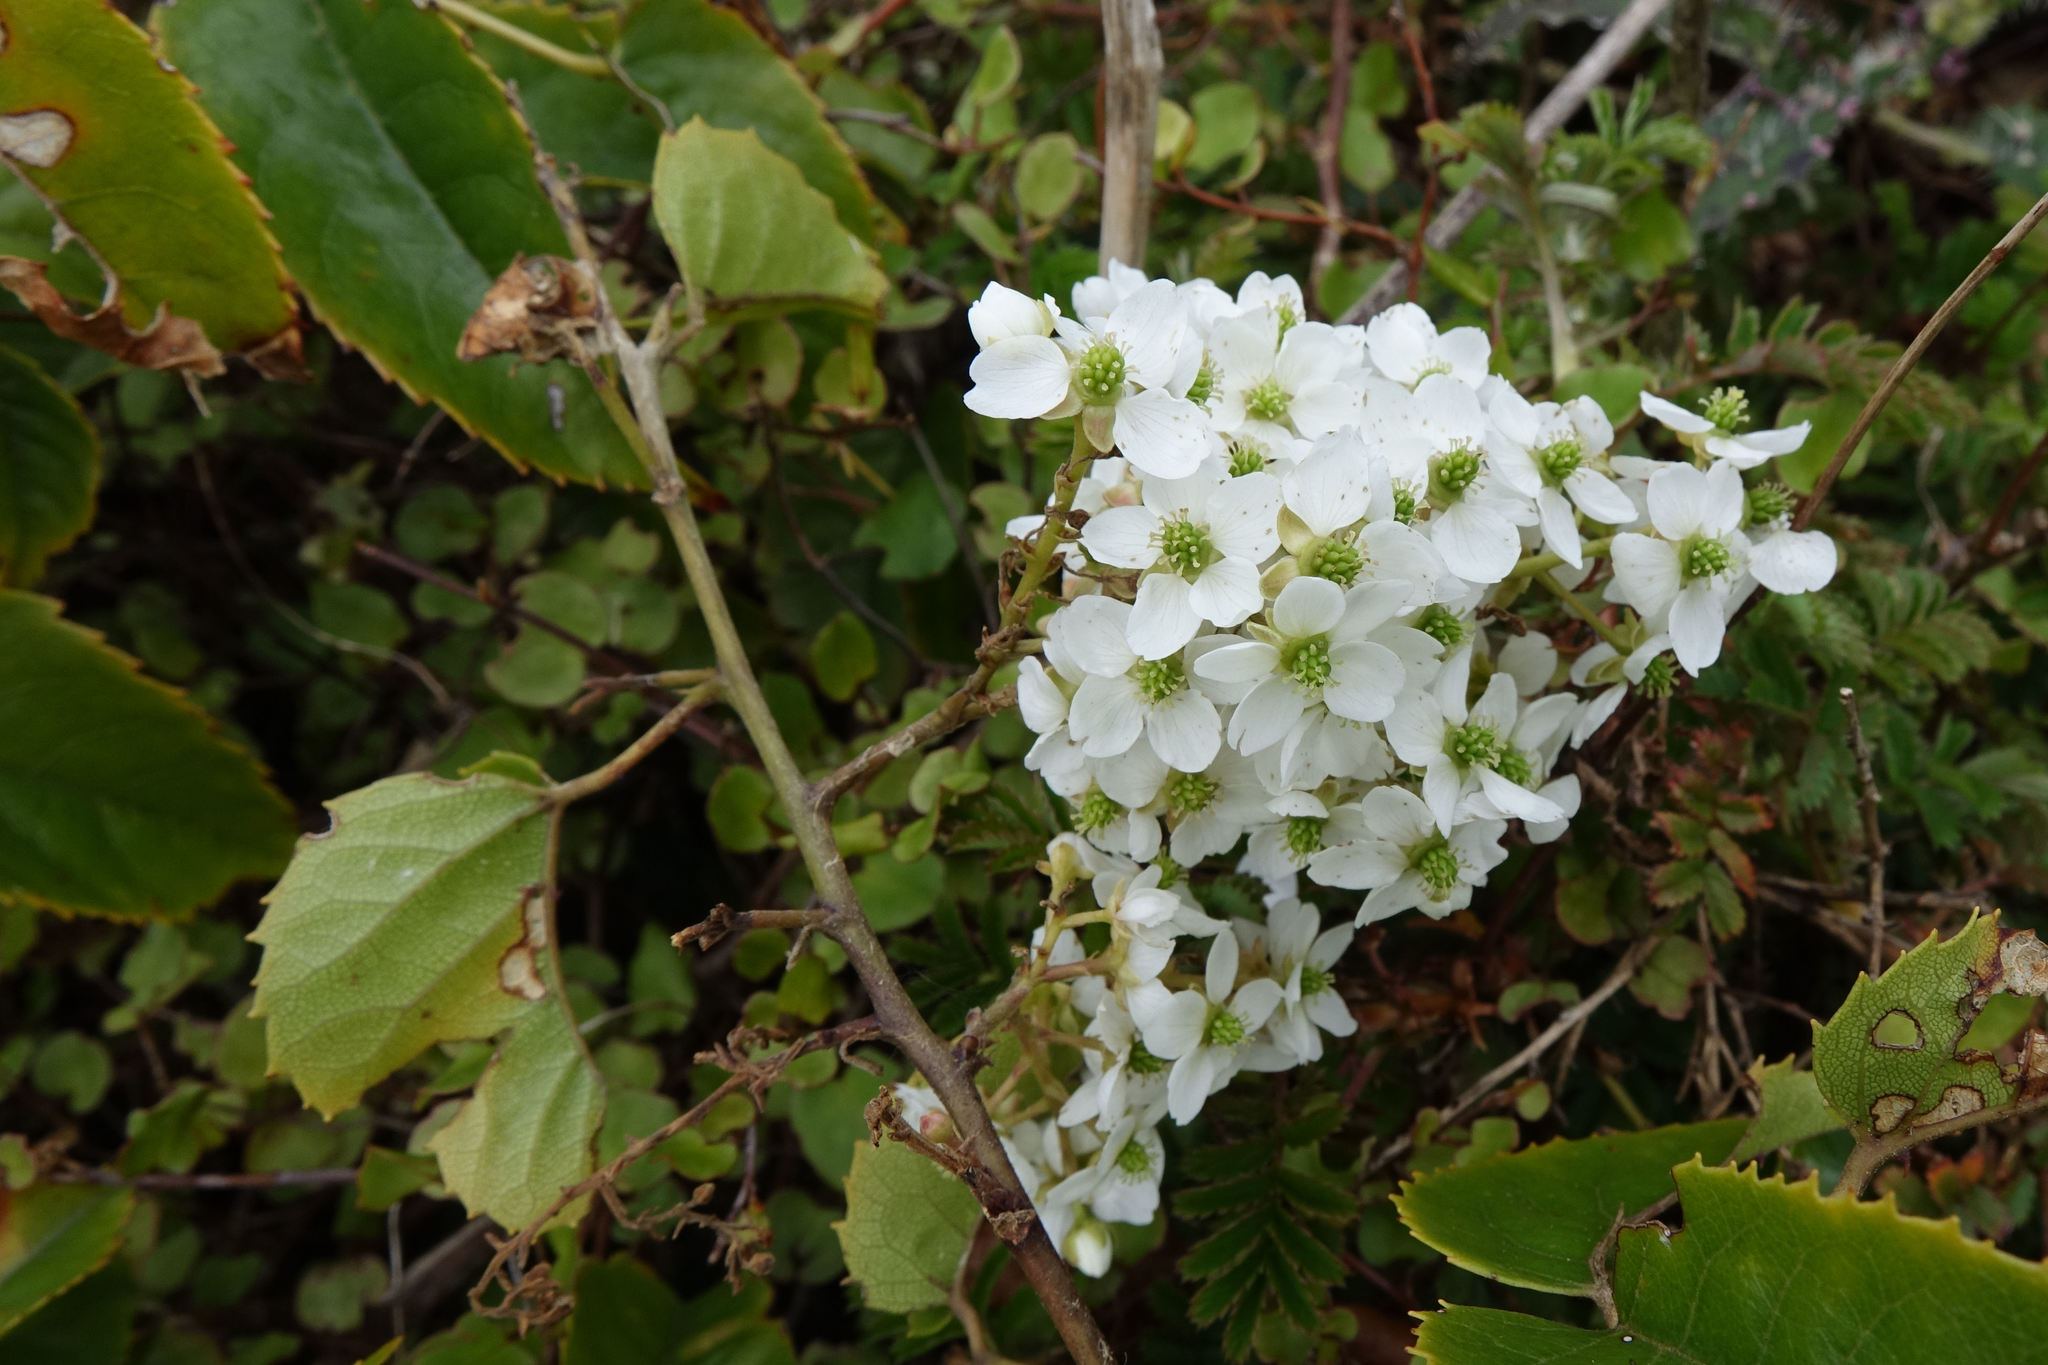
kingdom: Plantae
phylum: Tracheophyta
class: Magnoliopsida
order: Rosales
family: Rosaceae
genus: Rubus
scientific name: Rubus cissoides
